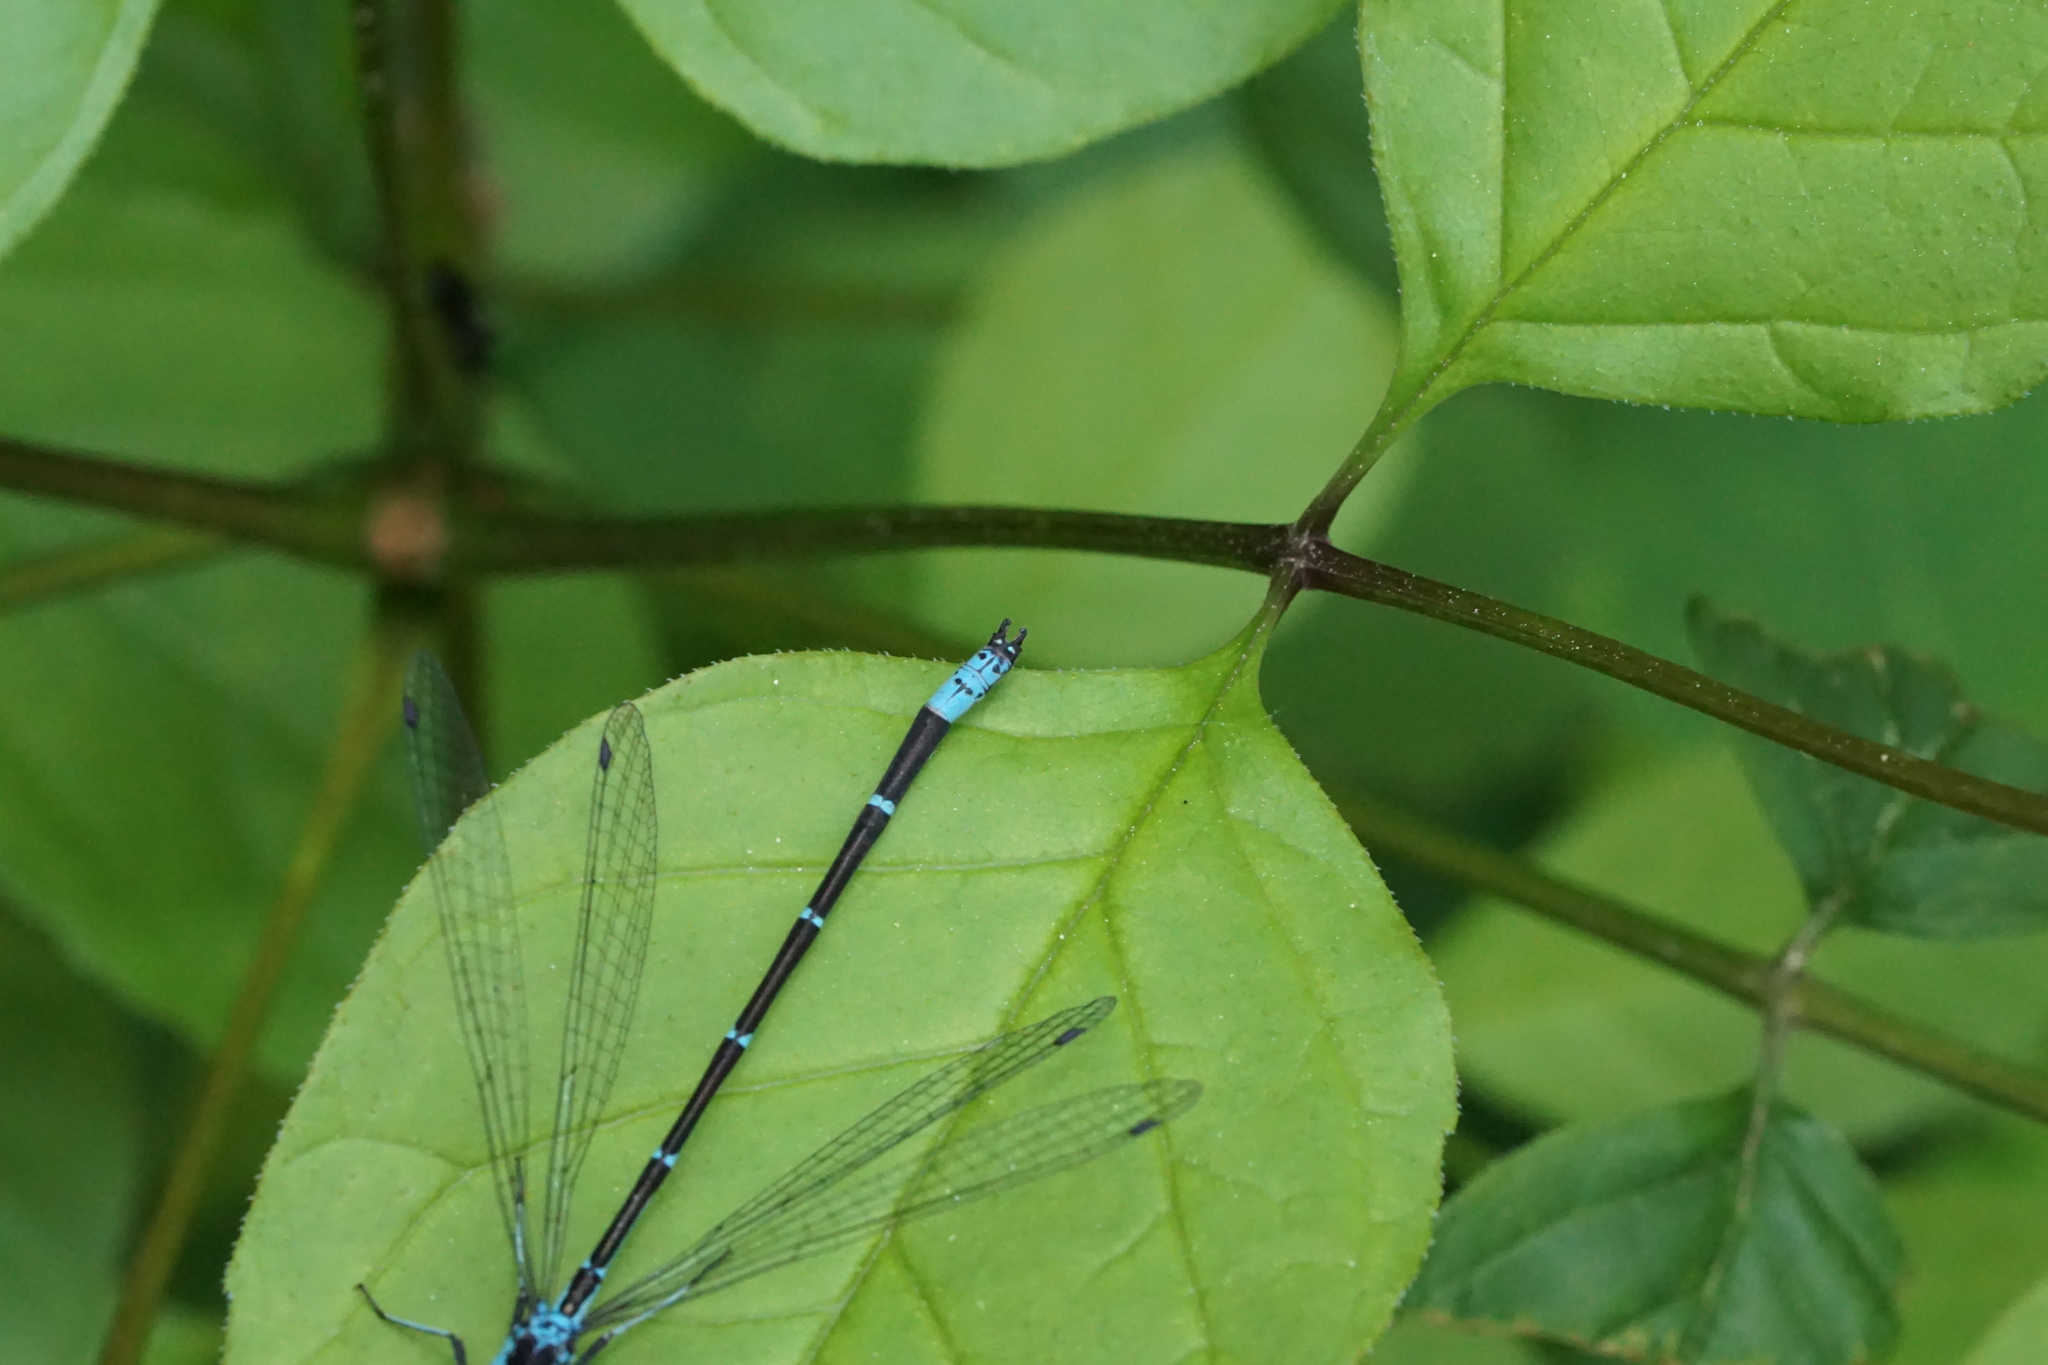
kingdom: Animalia
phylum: Arthropoda
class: Insecta
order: Odonata
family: Coenagrionidae
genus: Chromagrion
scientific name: Chromagrion conditum
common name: Aurora damsel
